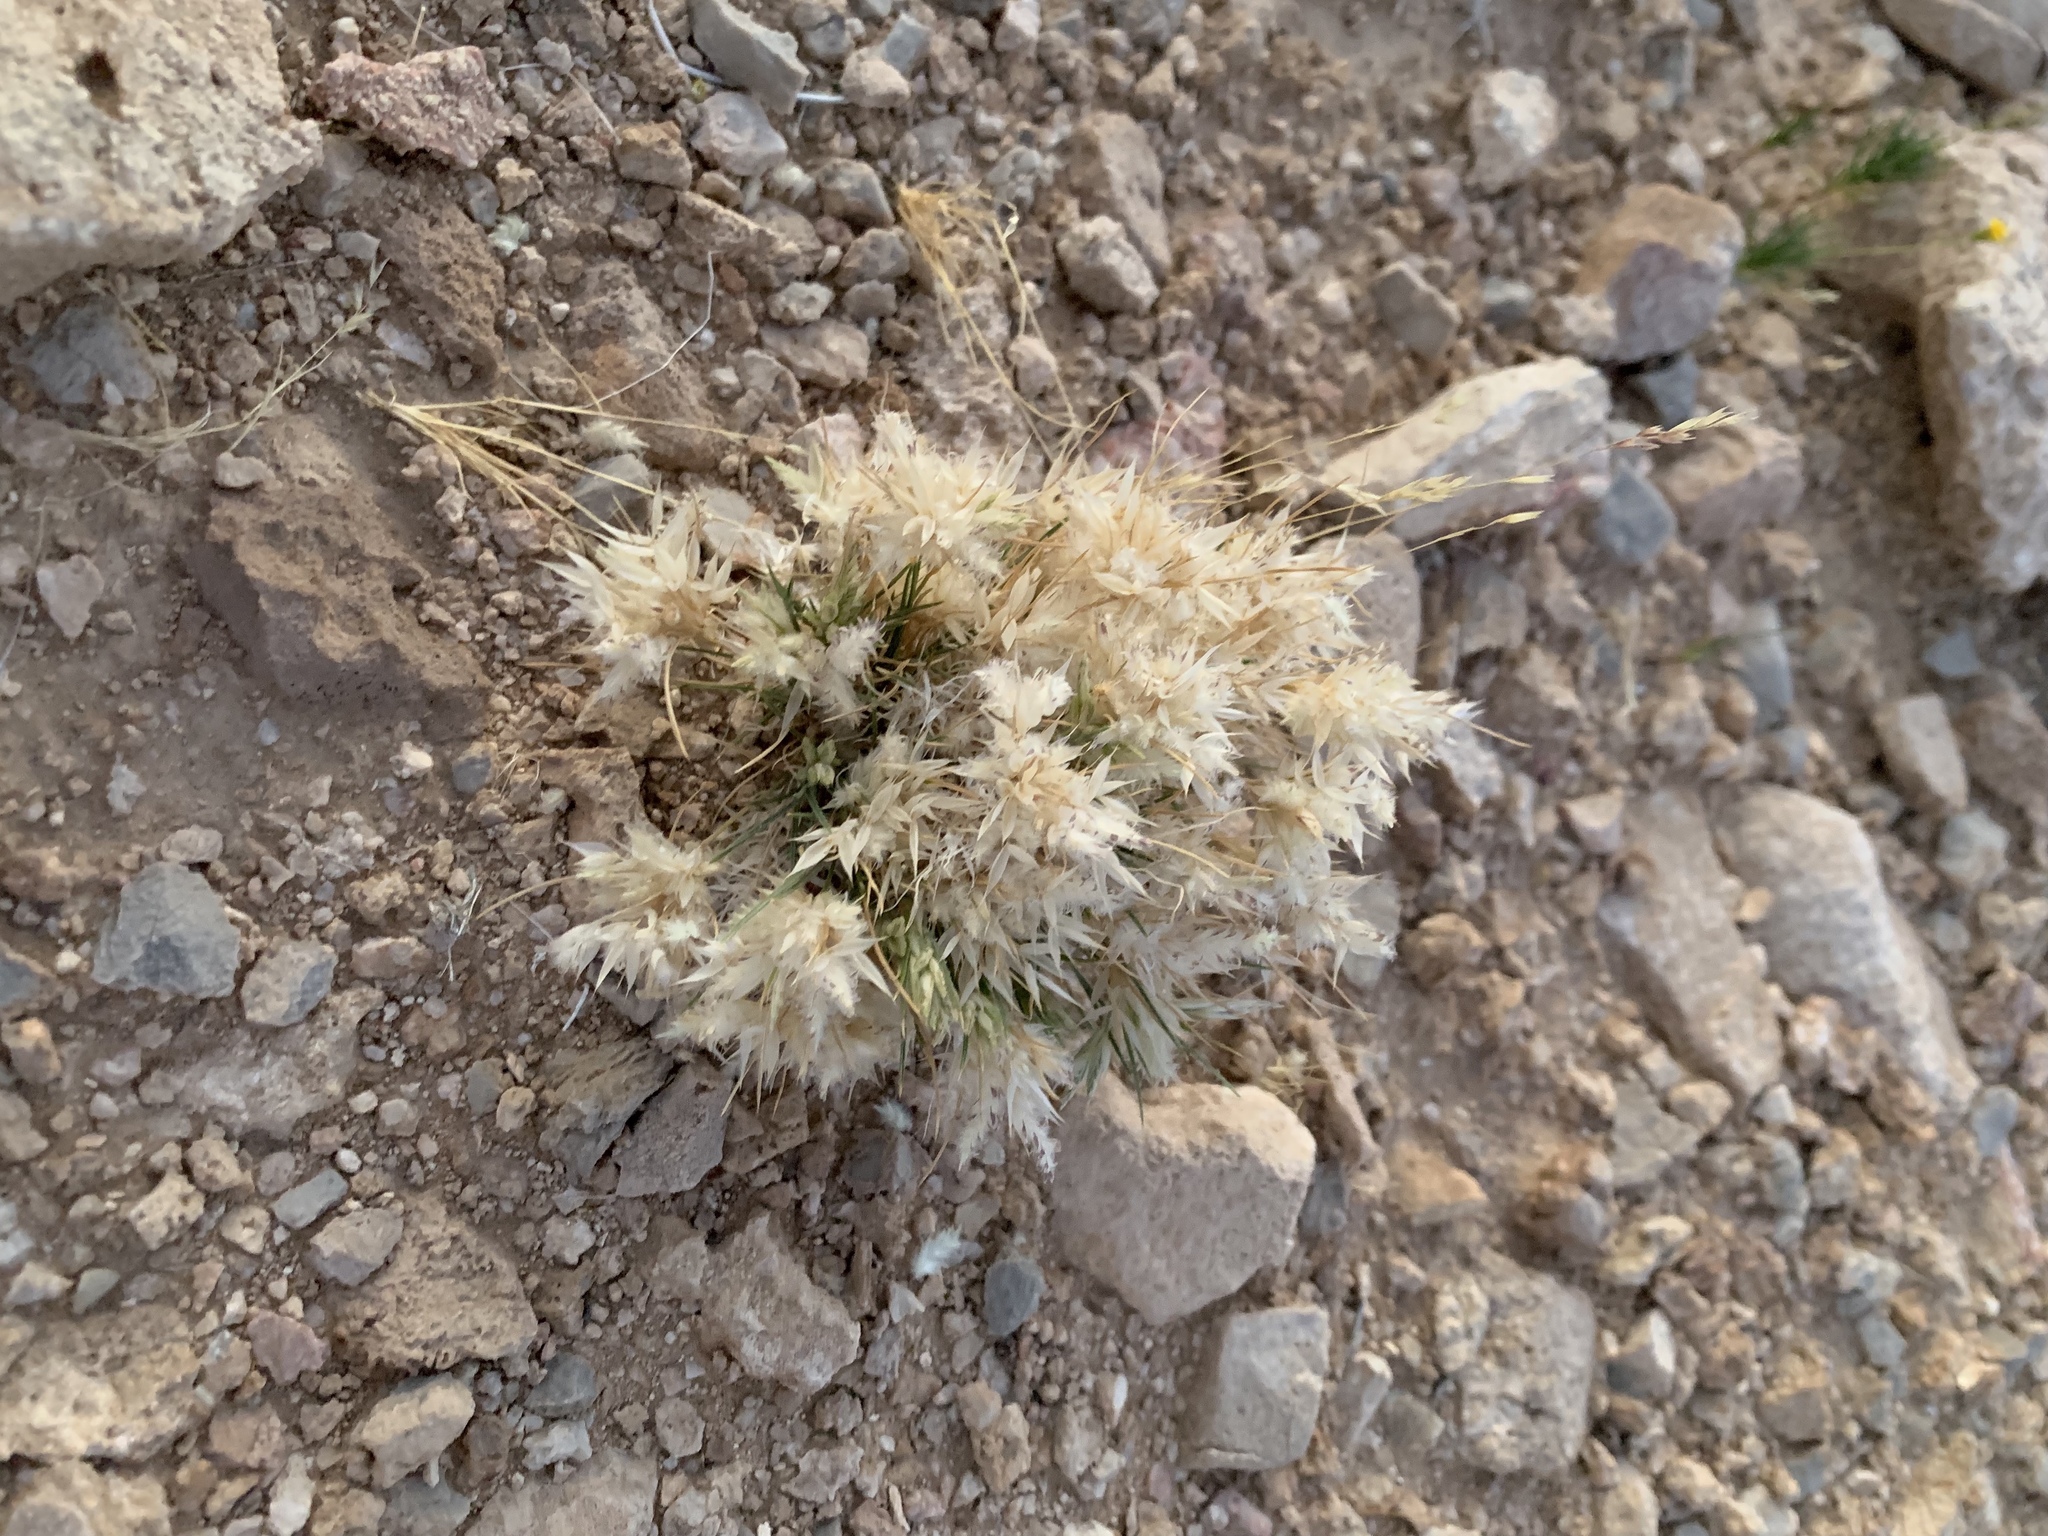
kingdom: Plantae
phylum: Tracheophyta
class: Liliopsida
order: Poales
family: Poaceae
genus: Dasyochloa
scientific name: Dasyochloa pulchella
